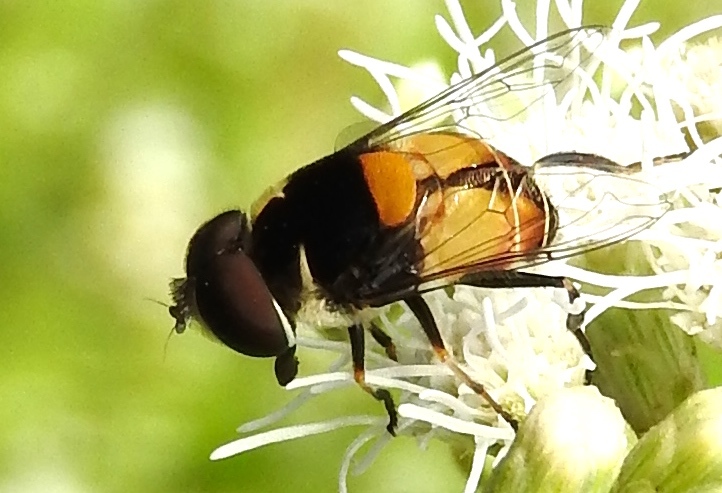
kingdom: Animalia
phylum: Arthropoda
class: Insecta
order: Diptera
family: Syrphidae
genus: Palpada
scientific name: Palpada
